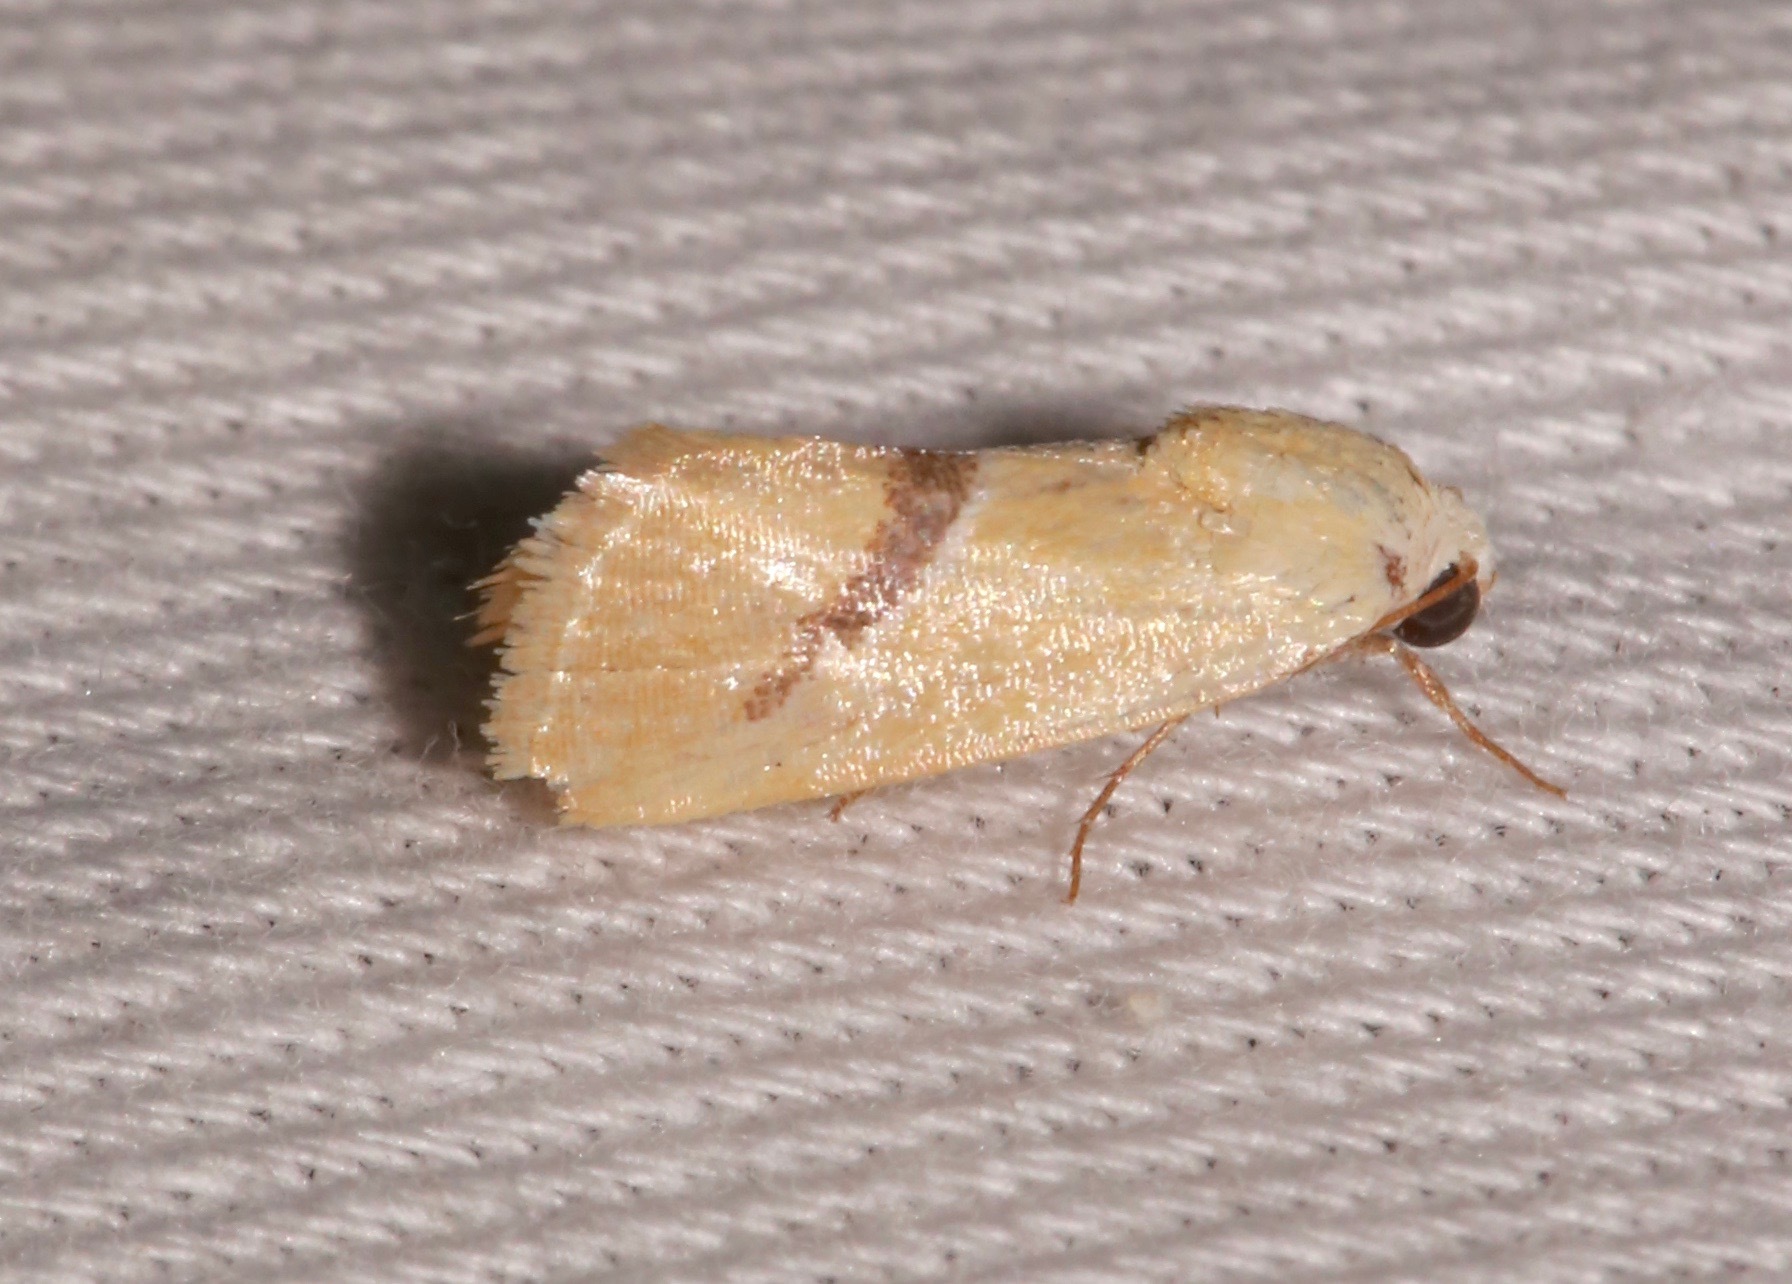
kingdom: Animalia
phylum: Arthropoda
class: Insecta
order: Lepidoptera
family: Noctuidae
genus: Ponometia
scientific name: Ponometia venustula
